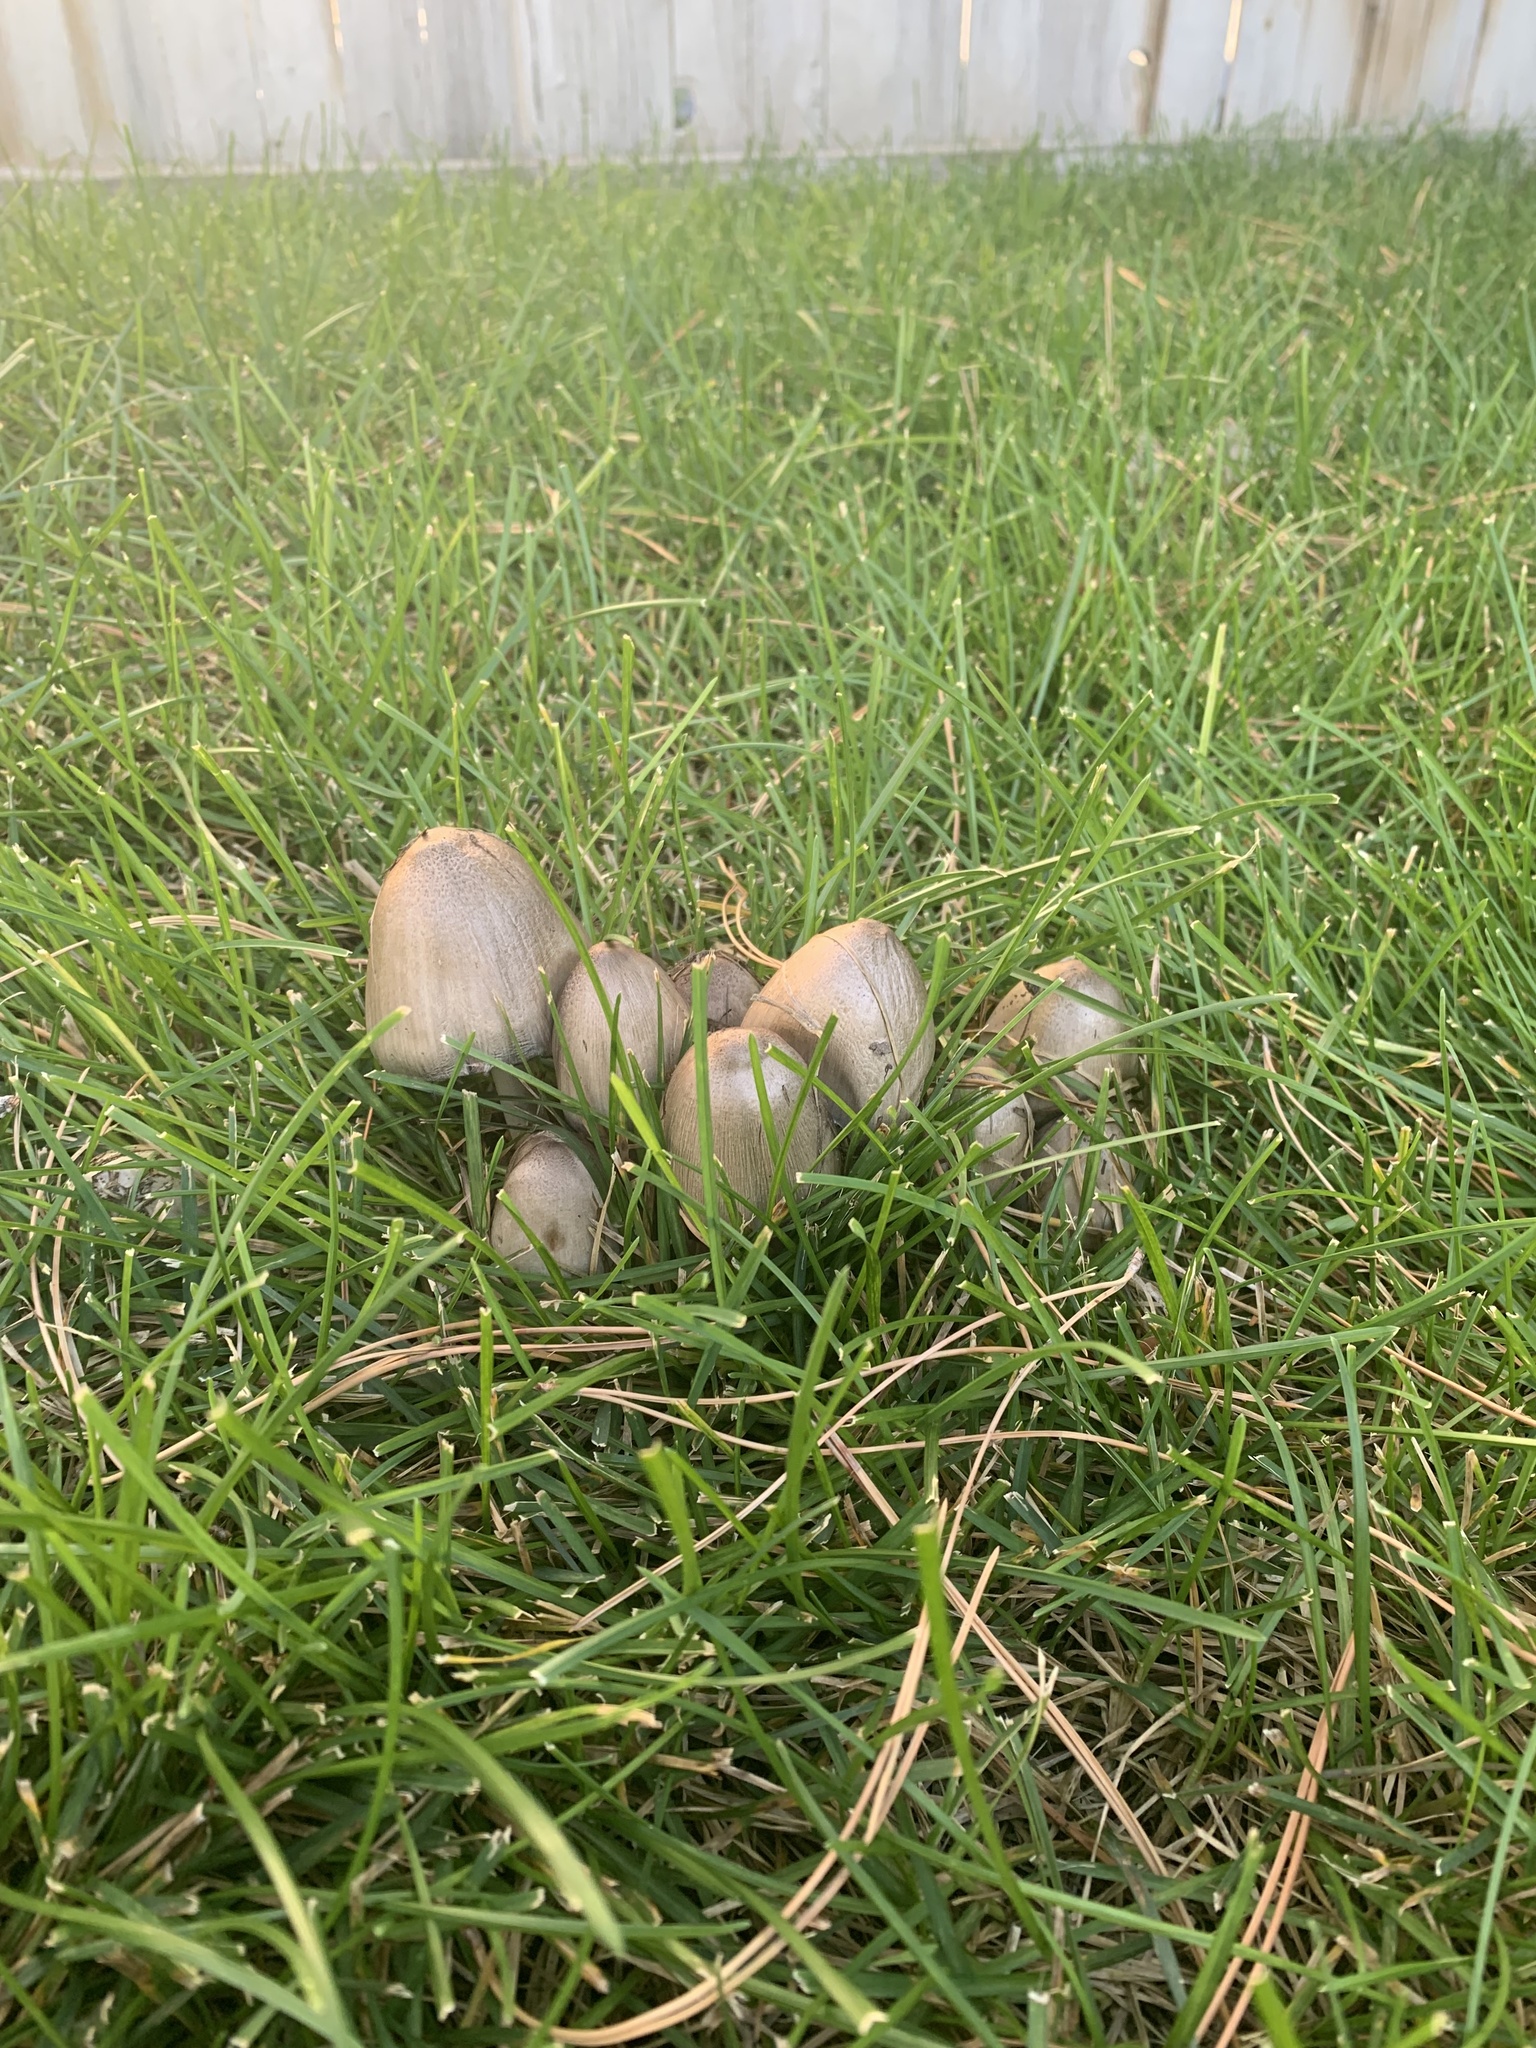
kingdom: Fungi
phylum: Basidiomycota
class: Agaricomycetes
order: Agaricales
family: Psathyrellaceae
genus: Coprinopsis
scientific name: Coprinopsis atramentaria
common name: Common ink-cap
